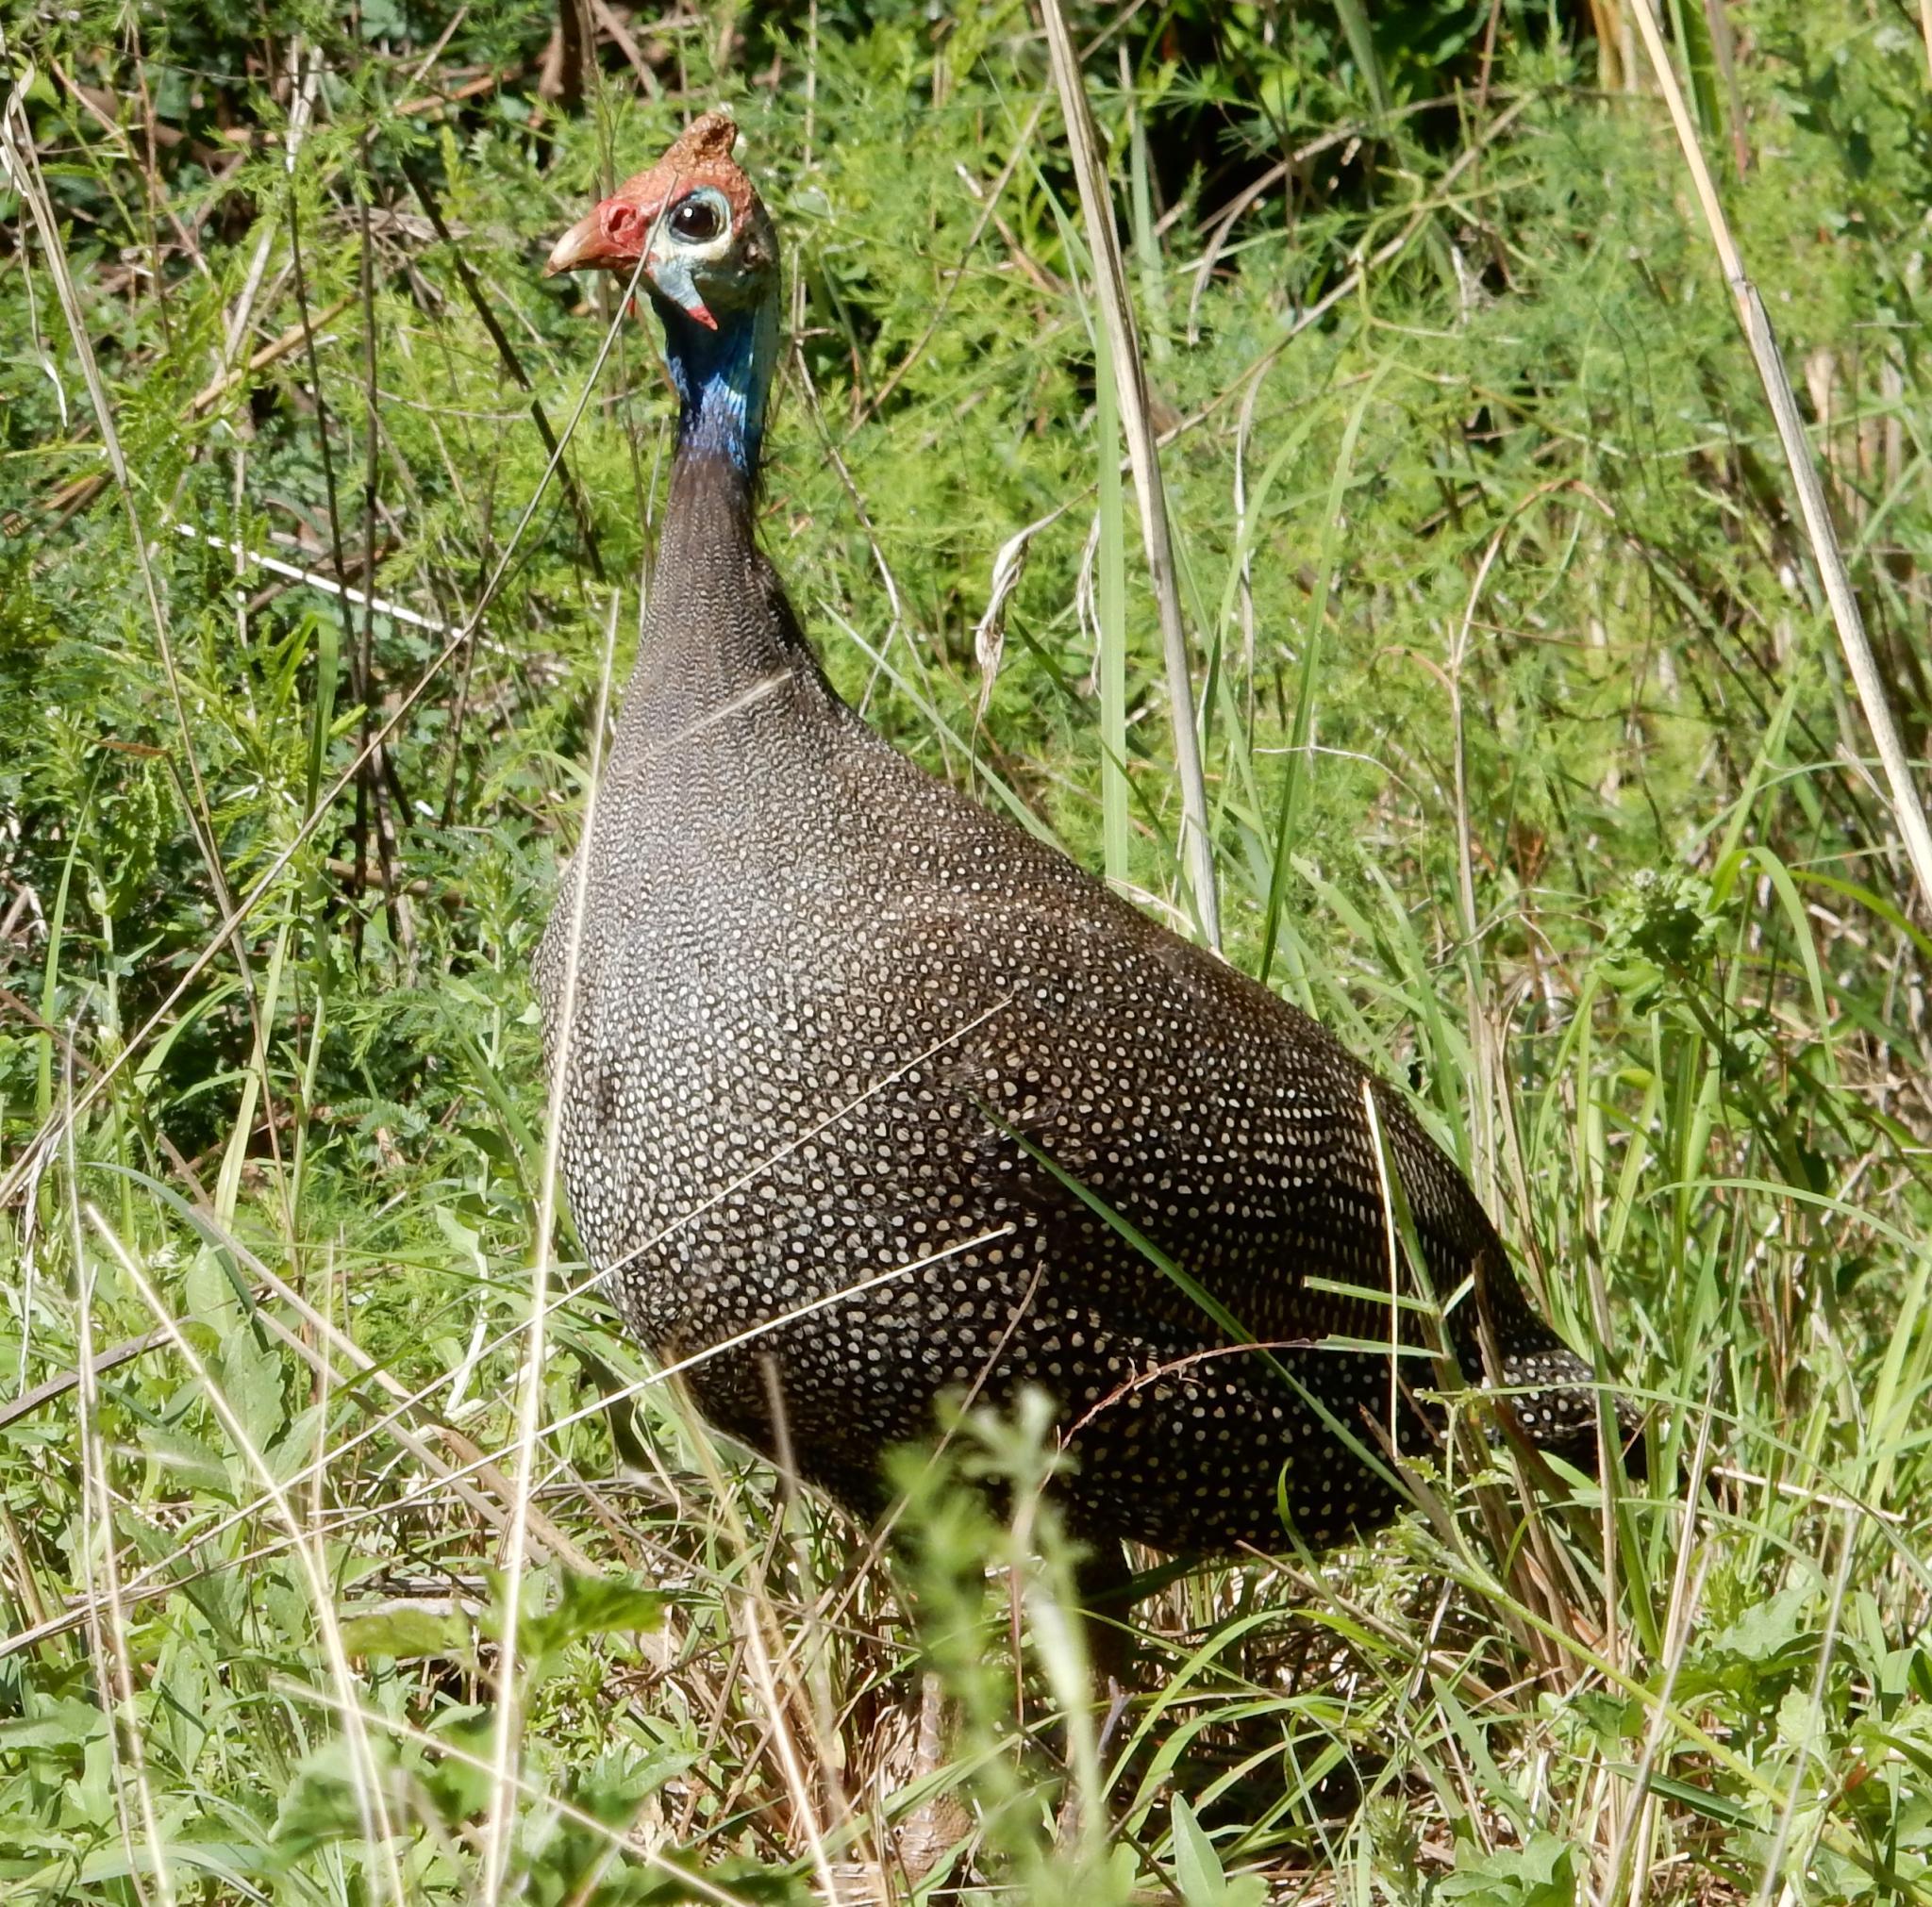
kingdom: Animalia
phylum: Chordata
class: Aves
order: Galliformes
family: Numididae
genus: Numida
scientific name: Numida meleagris
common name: Helmeted guineafowl
